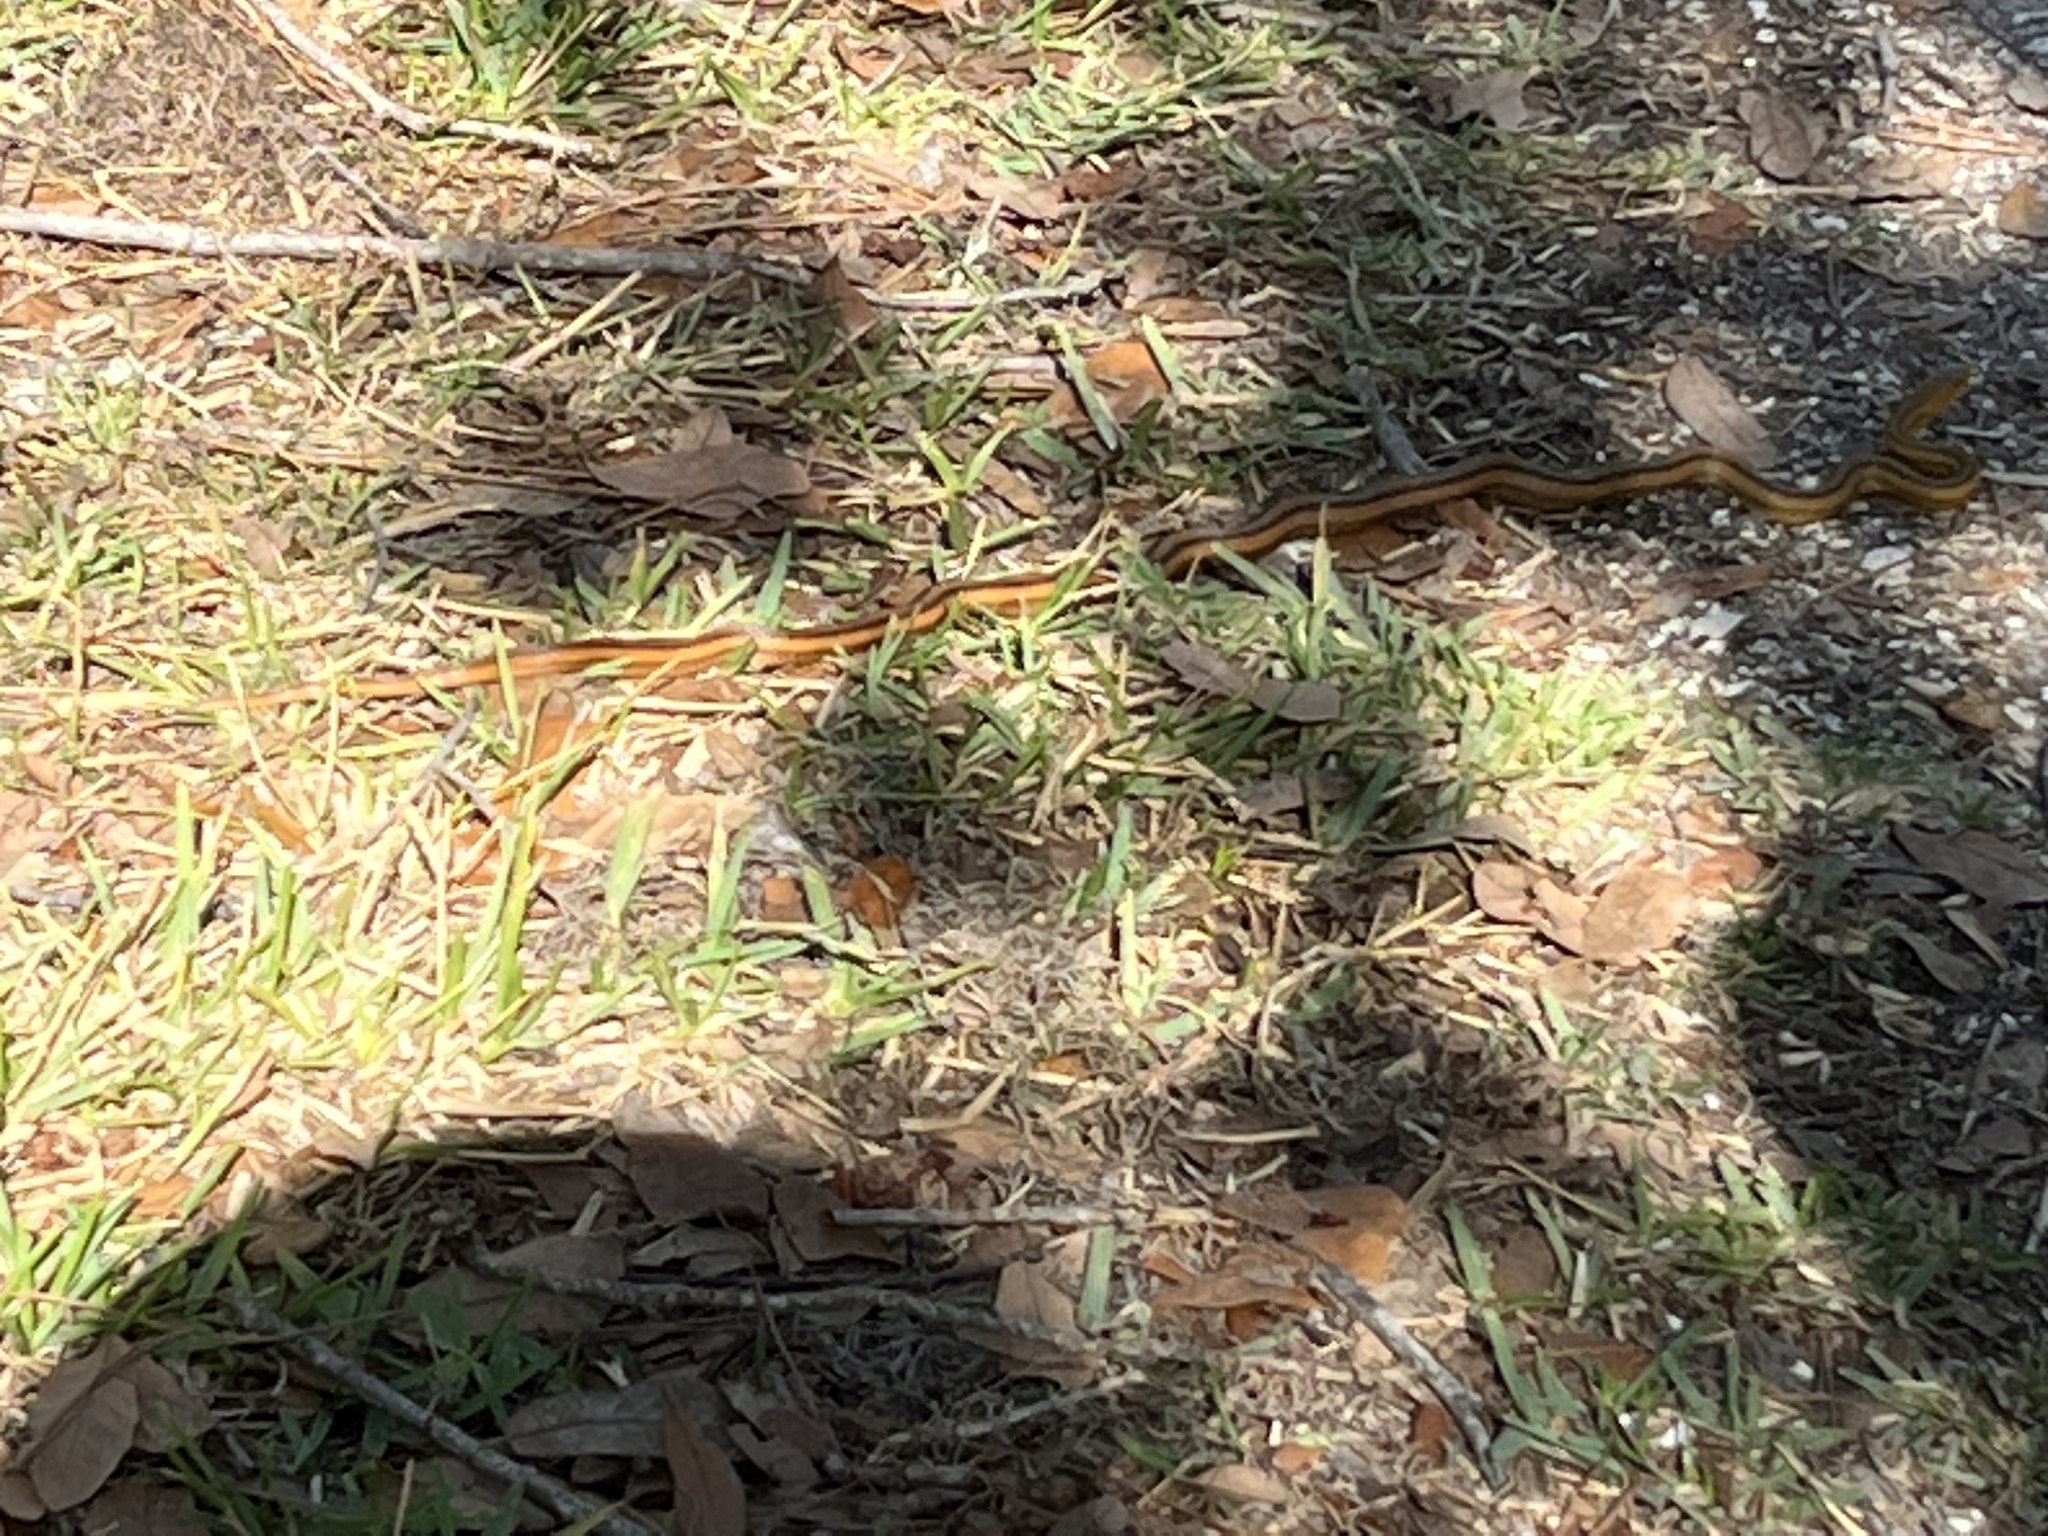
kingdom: Animalia
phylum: Chordata
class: Squamata
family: Colubridae
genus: Pantherophis
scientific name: Pantherophis alleghaniensis
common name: Eastern rat snake
